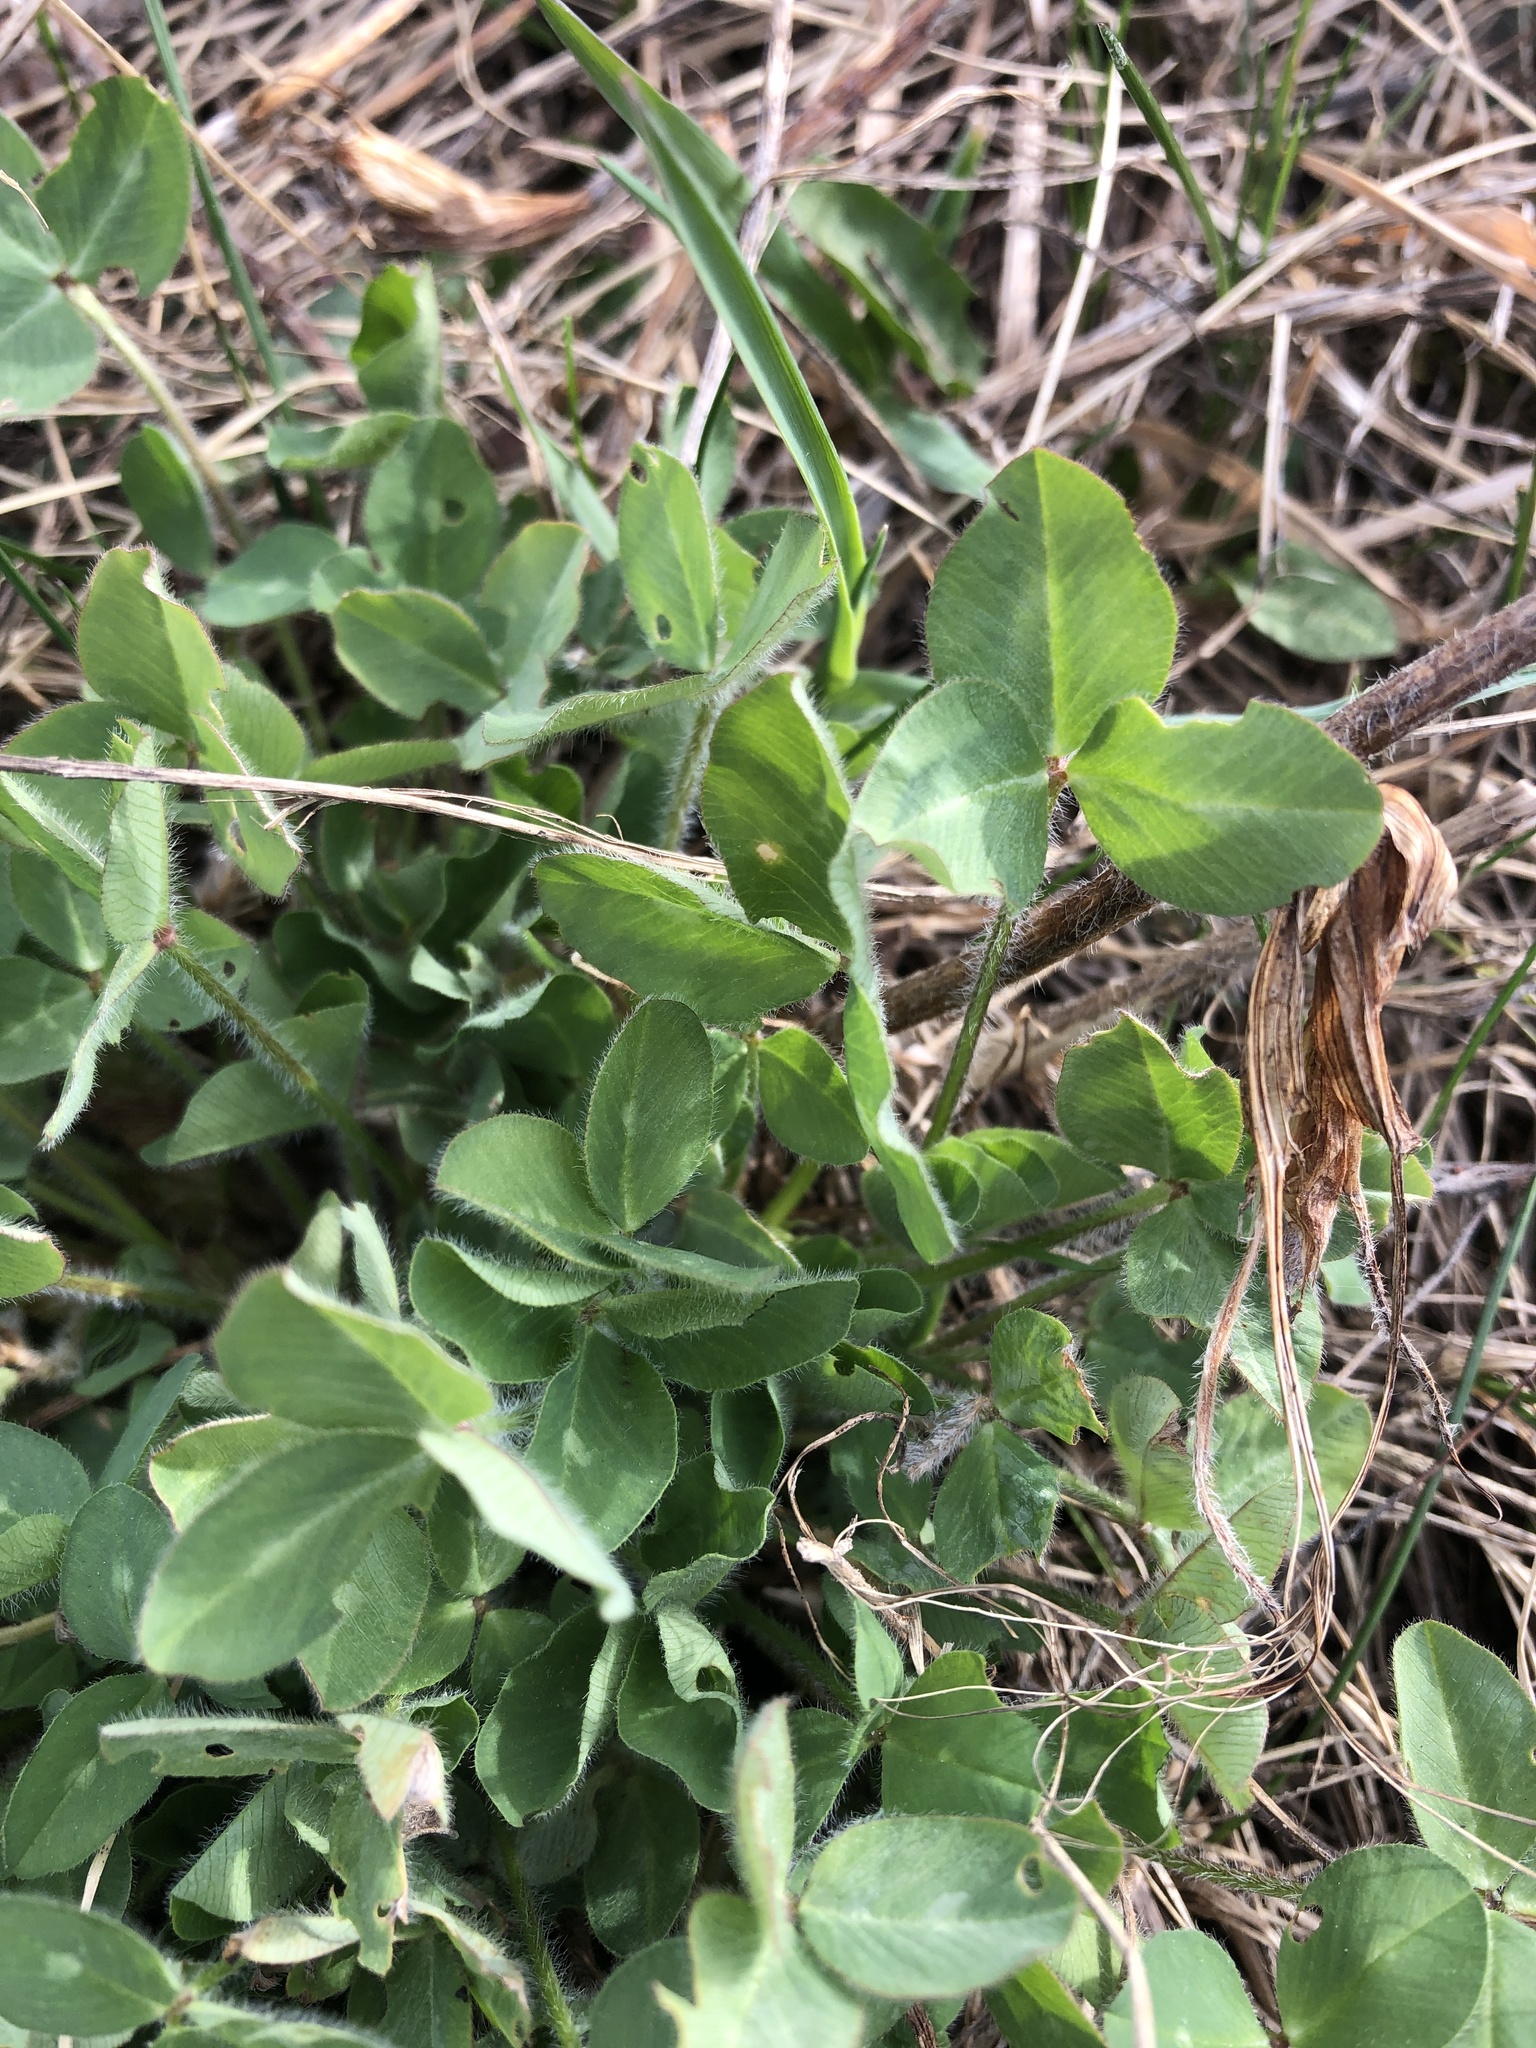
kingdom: Plantae
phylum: Tracheophyta
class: Magnoliopsida
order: Fabales
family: Fabaceae
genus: Trifolium
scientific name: Trifolium pratense
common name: Red clover
